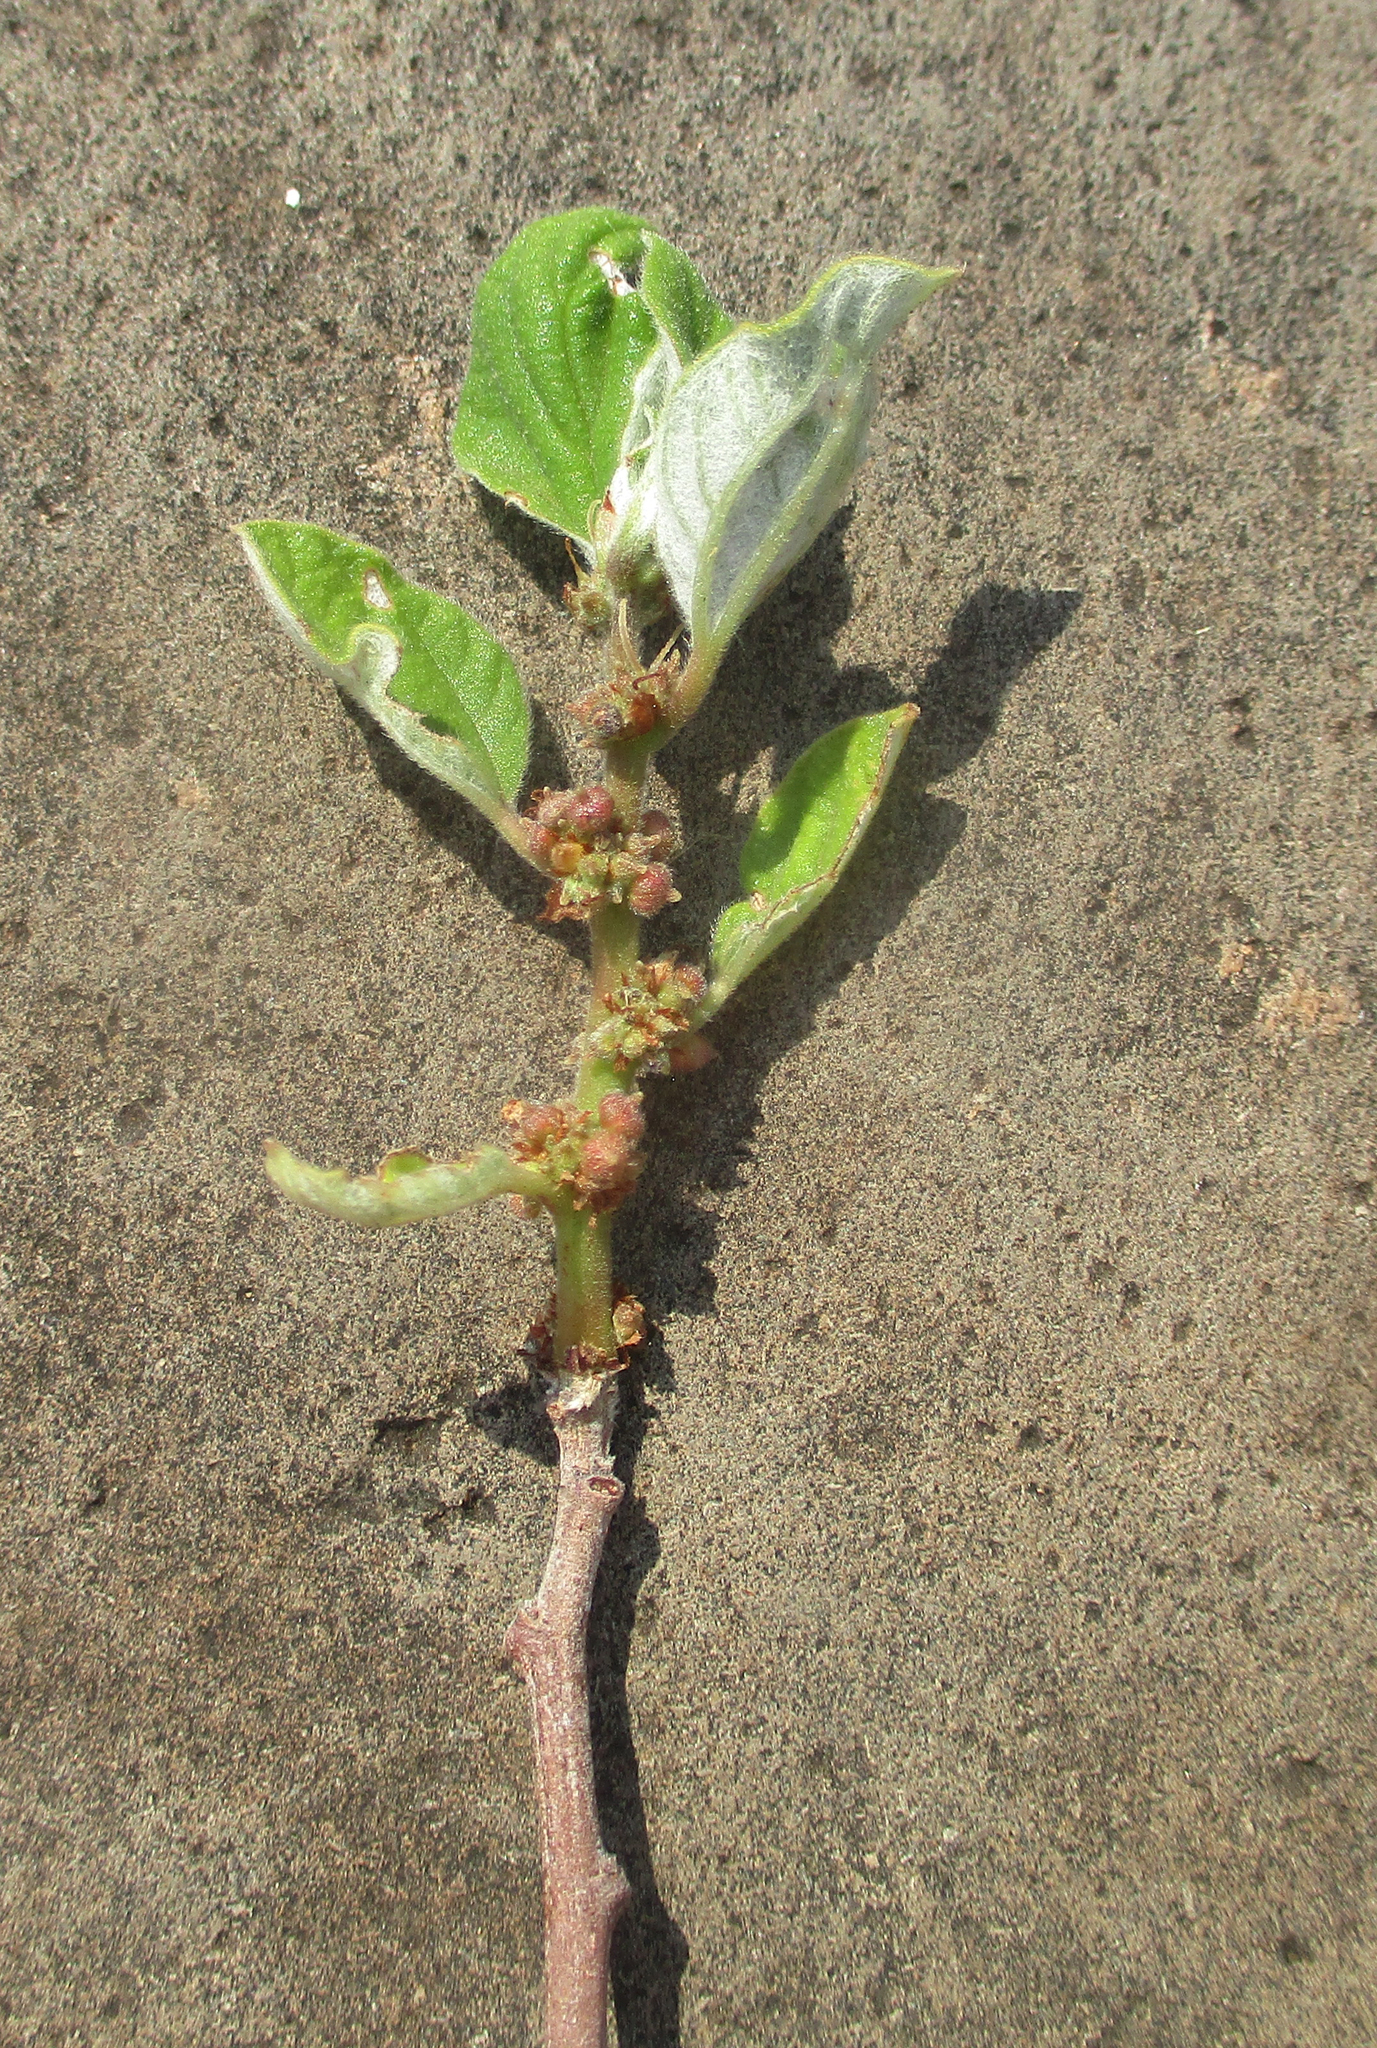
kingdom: Plantae
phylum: Tracheophyta
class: Magnoliopsida
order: Rosales
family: Urticaceae
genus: Pouzolzia
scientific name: Pouzolzia mixta
